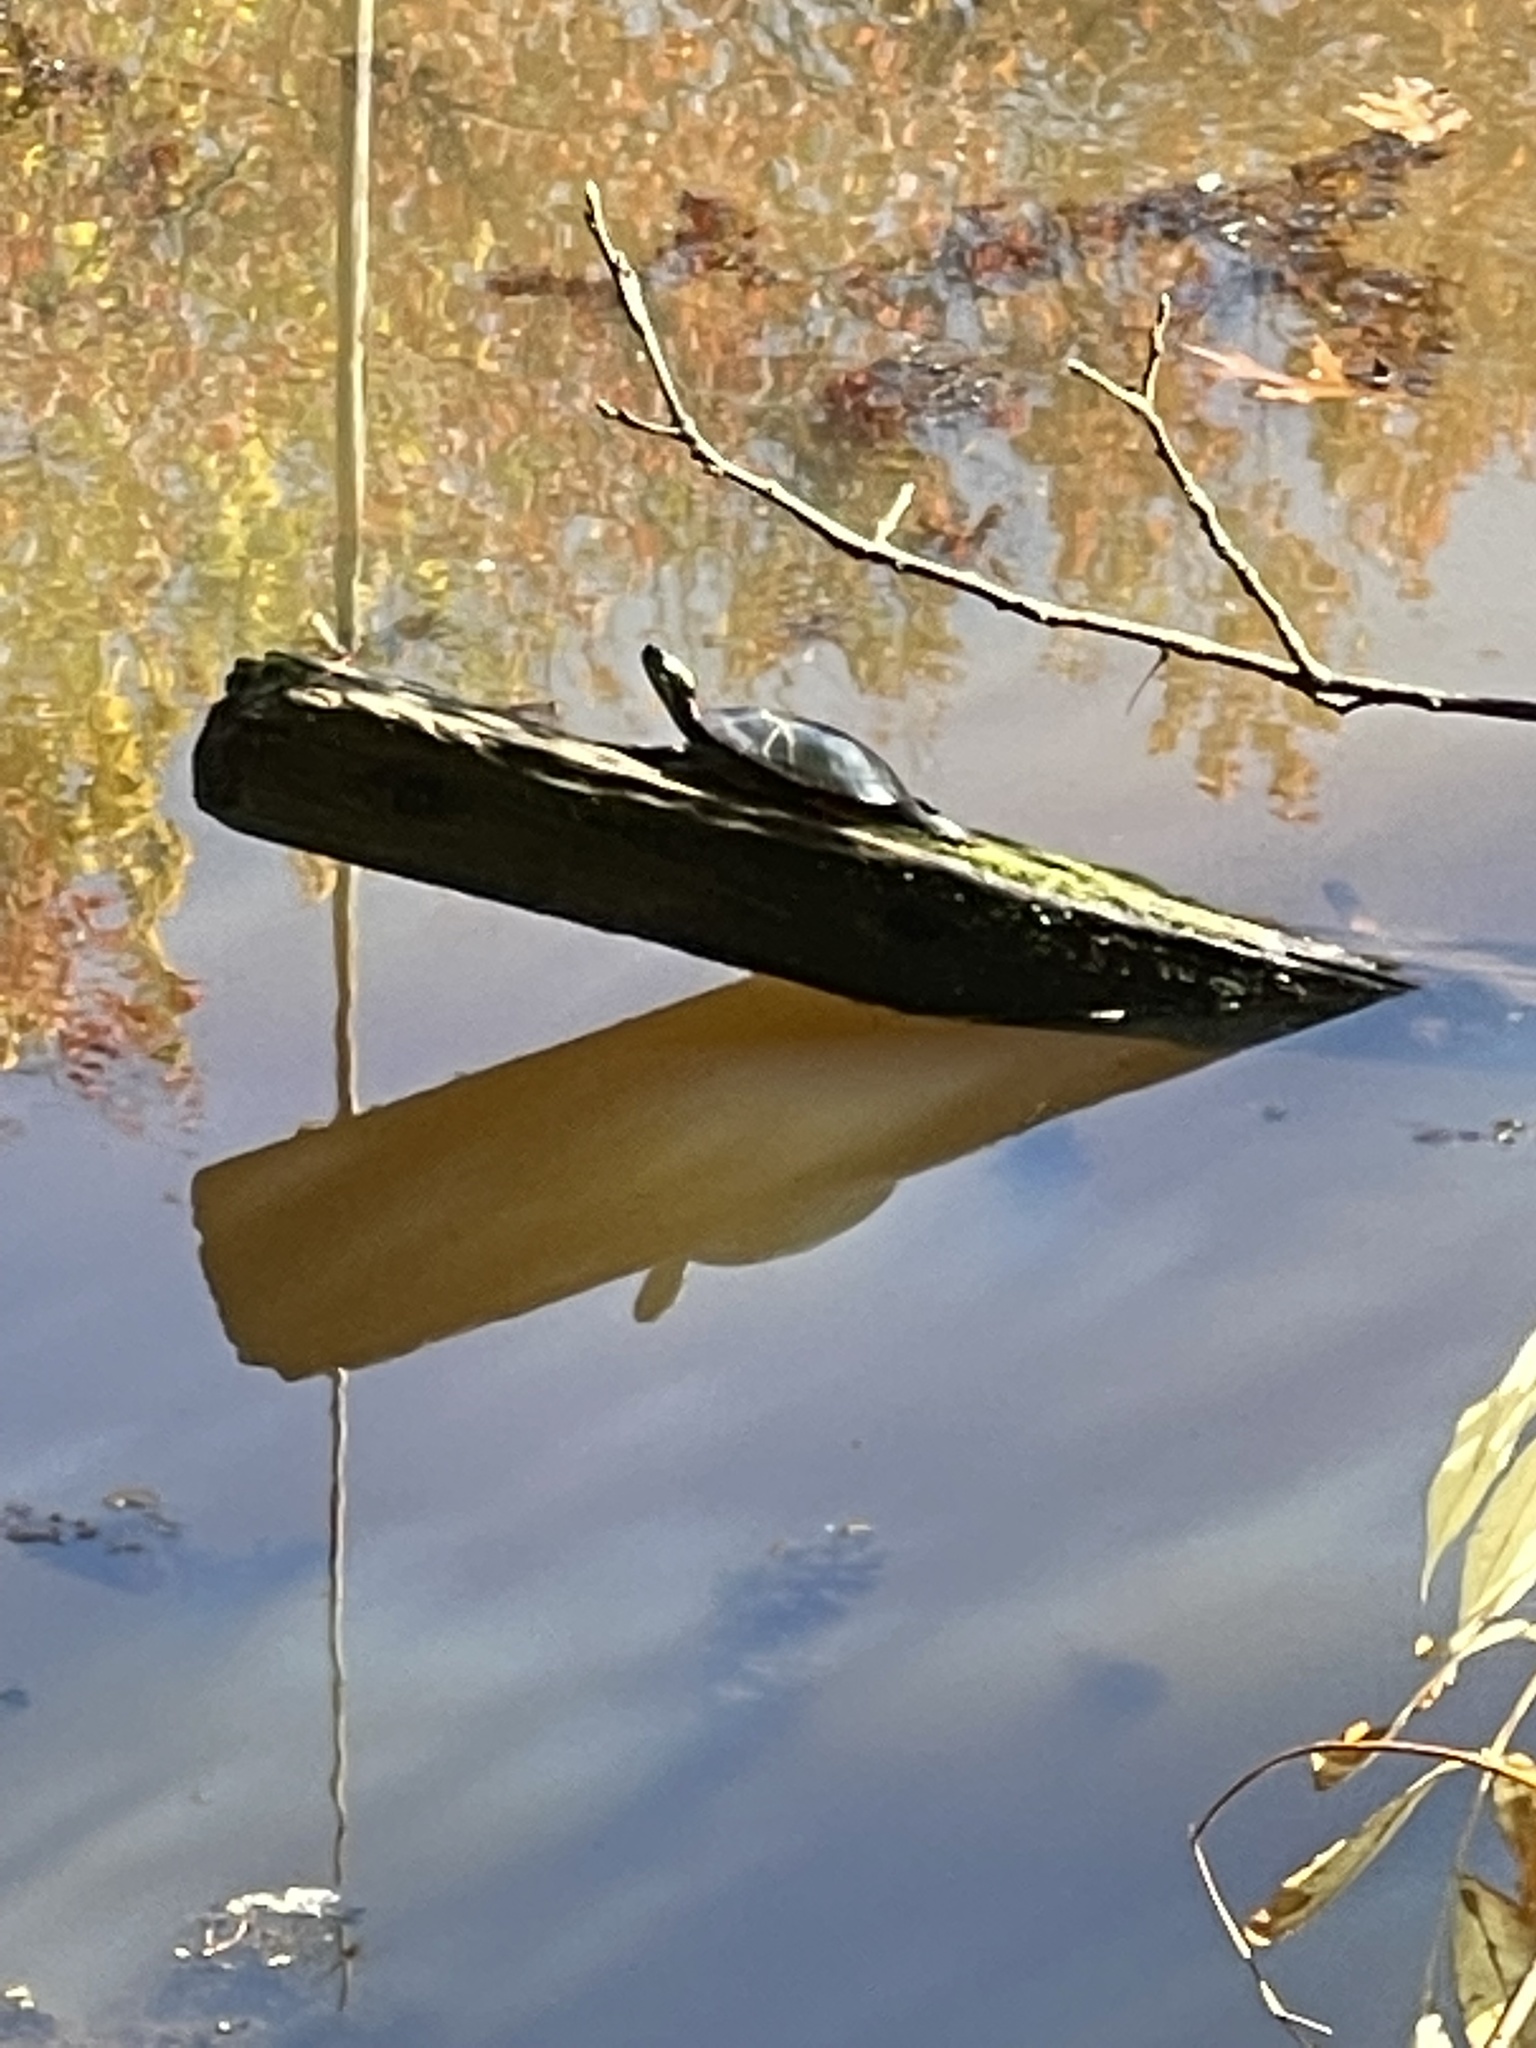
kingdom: Animalia
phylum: Chordata
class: Testudines
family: Emydidae
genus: Chrysemys
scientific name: Chrysemys picta
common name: Painted turtle
